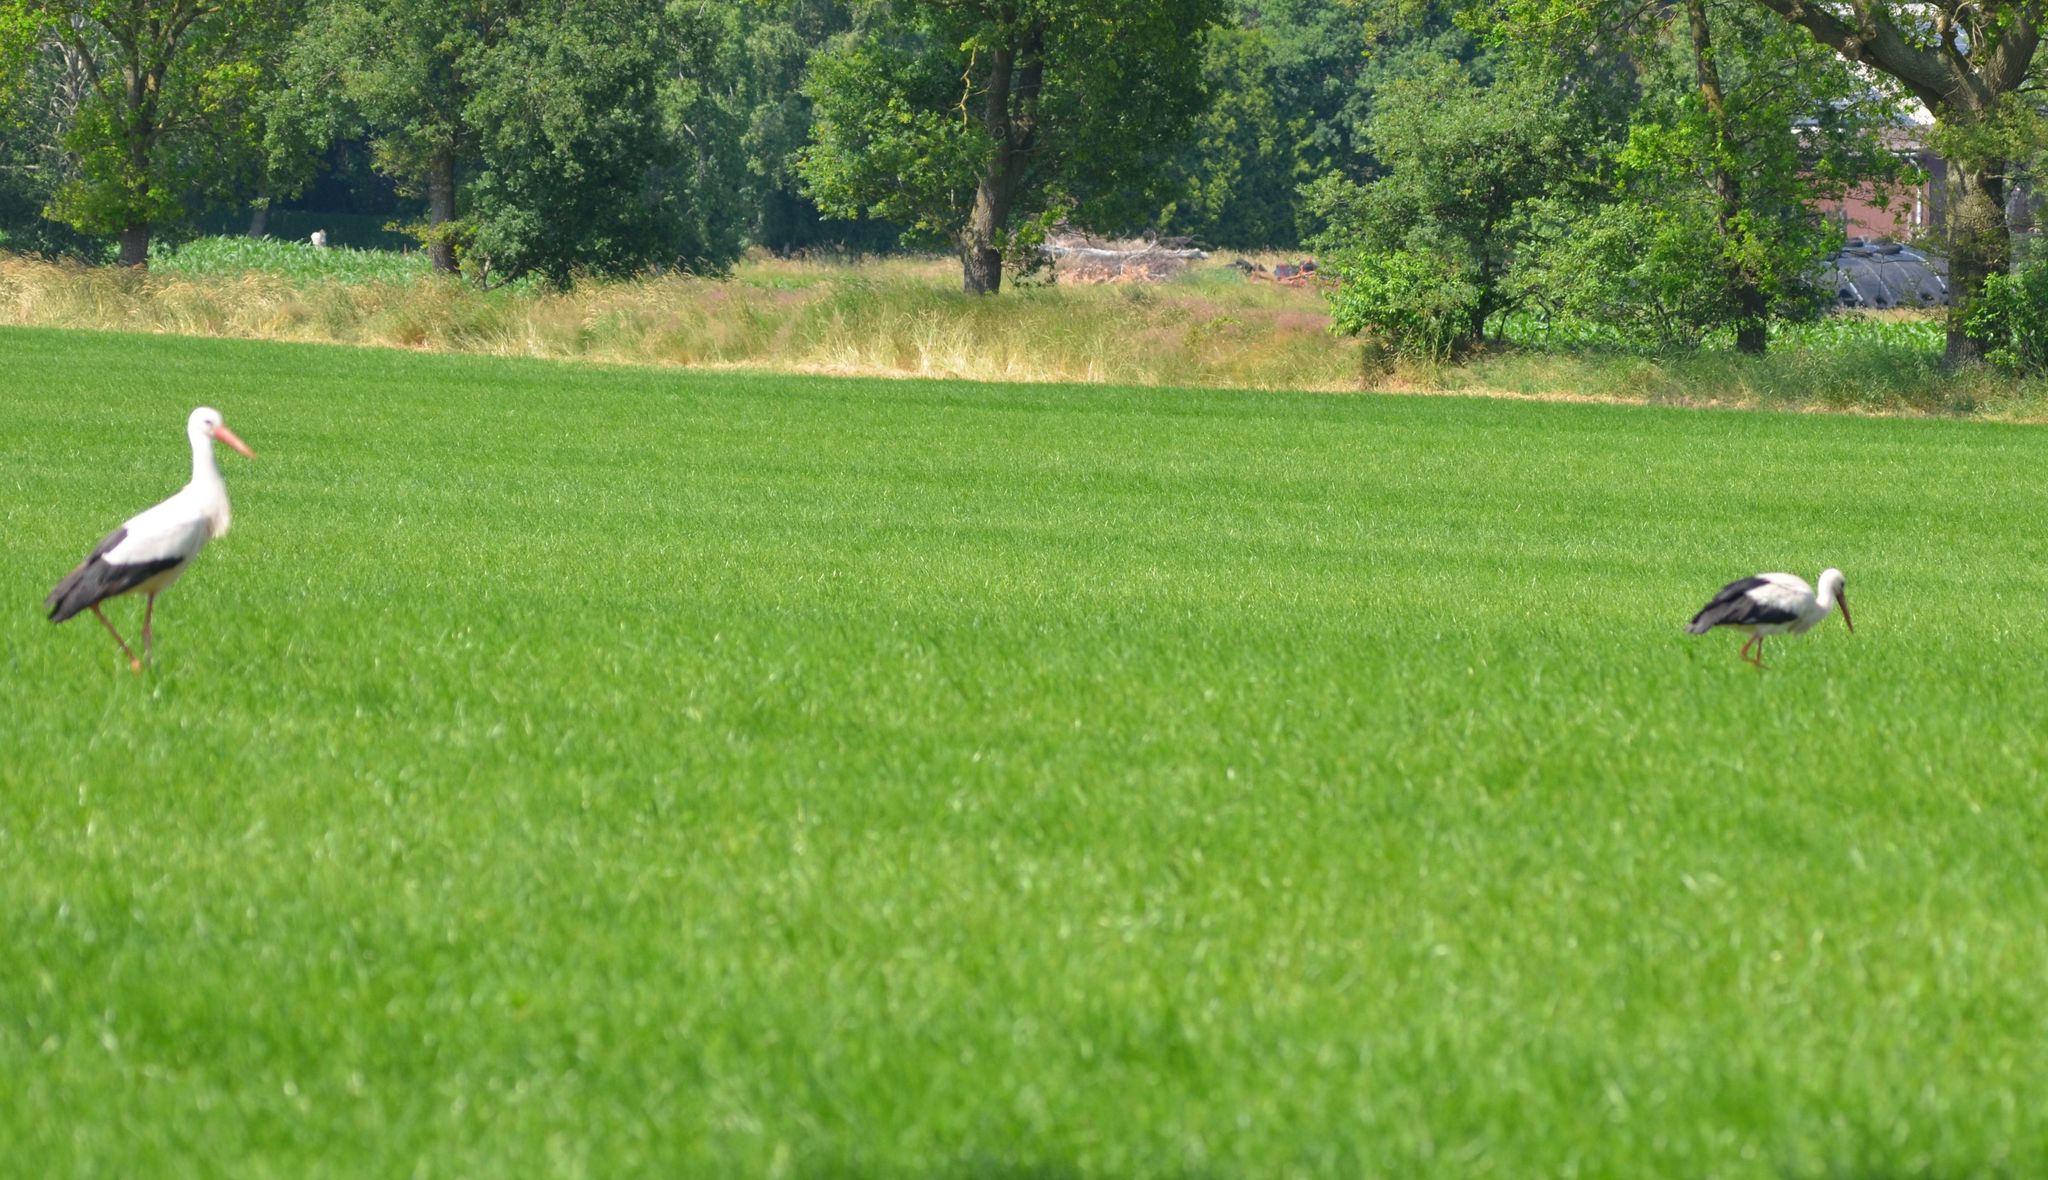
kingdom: Animalia
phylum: Chordata
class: Aves
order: Ciconiiformes
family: Ciconiidae
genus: Ciconia
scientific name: Ciconia ciconia
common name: White stork
